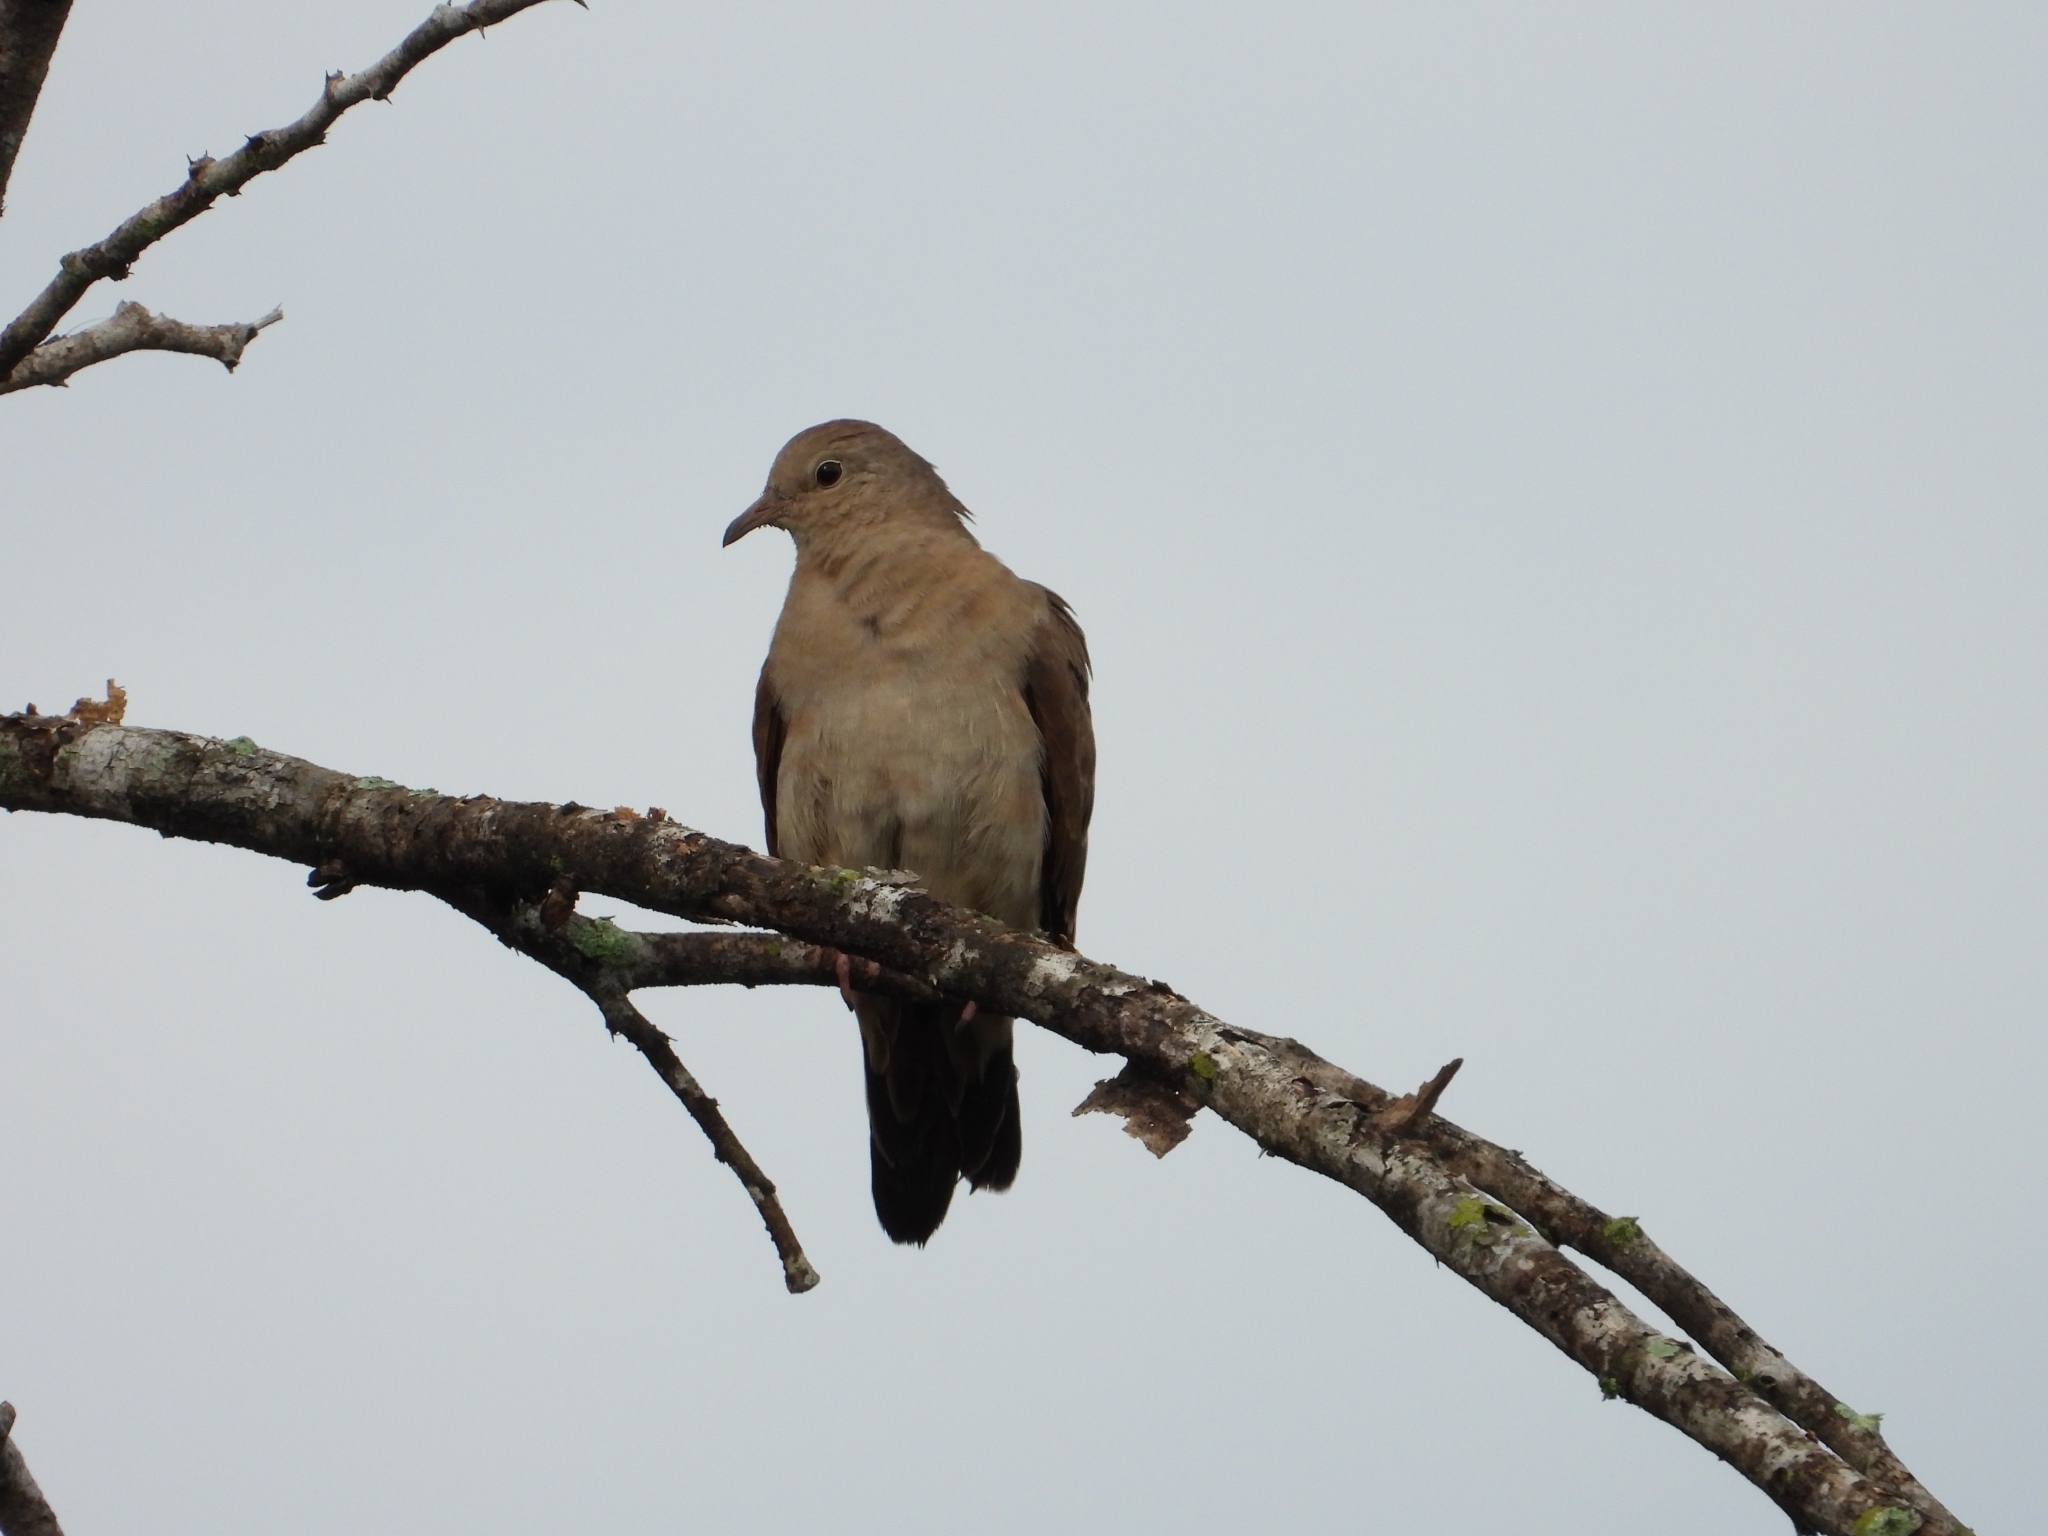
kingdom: Animalia
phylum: Chordata
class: Aves
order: Columbiformes
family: Columbidae
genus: Columbina
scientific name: Columbina talpacoti
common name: Ruddy ground dove
